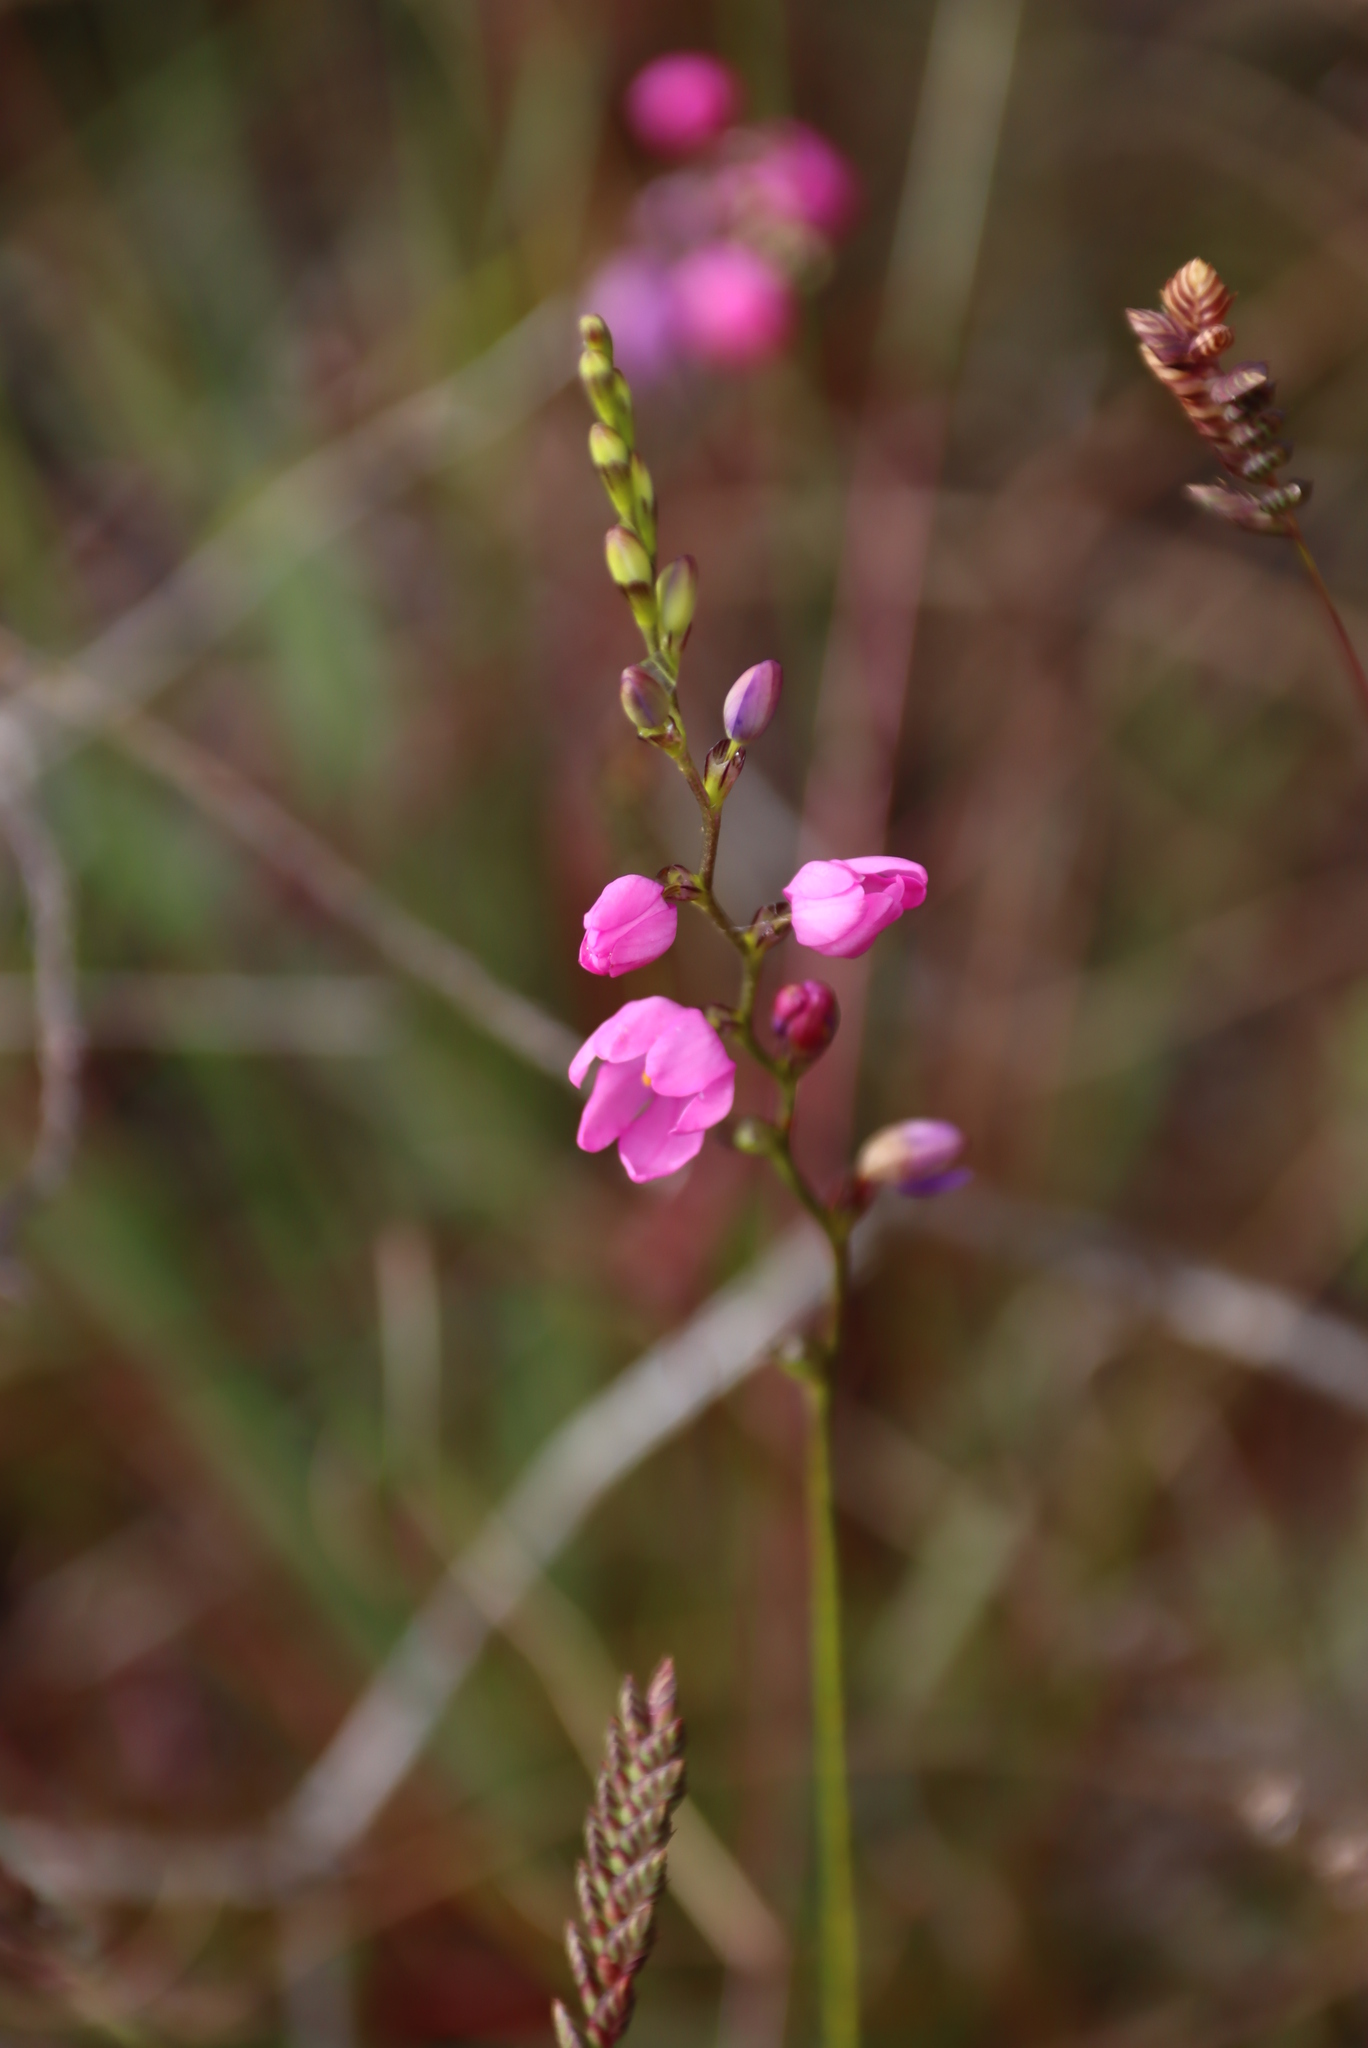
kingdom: Plantae
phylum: Tracheophyta
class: Liliopsida
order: Asparagales
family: Iridaceae
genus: Ixia
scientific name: Ixia stricta
